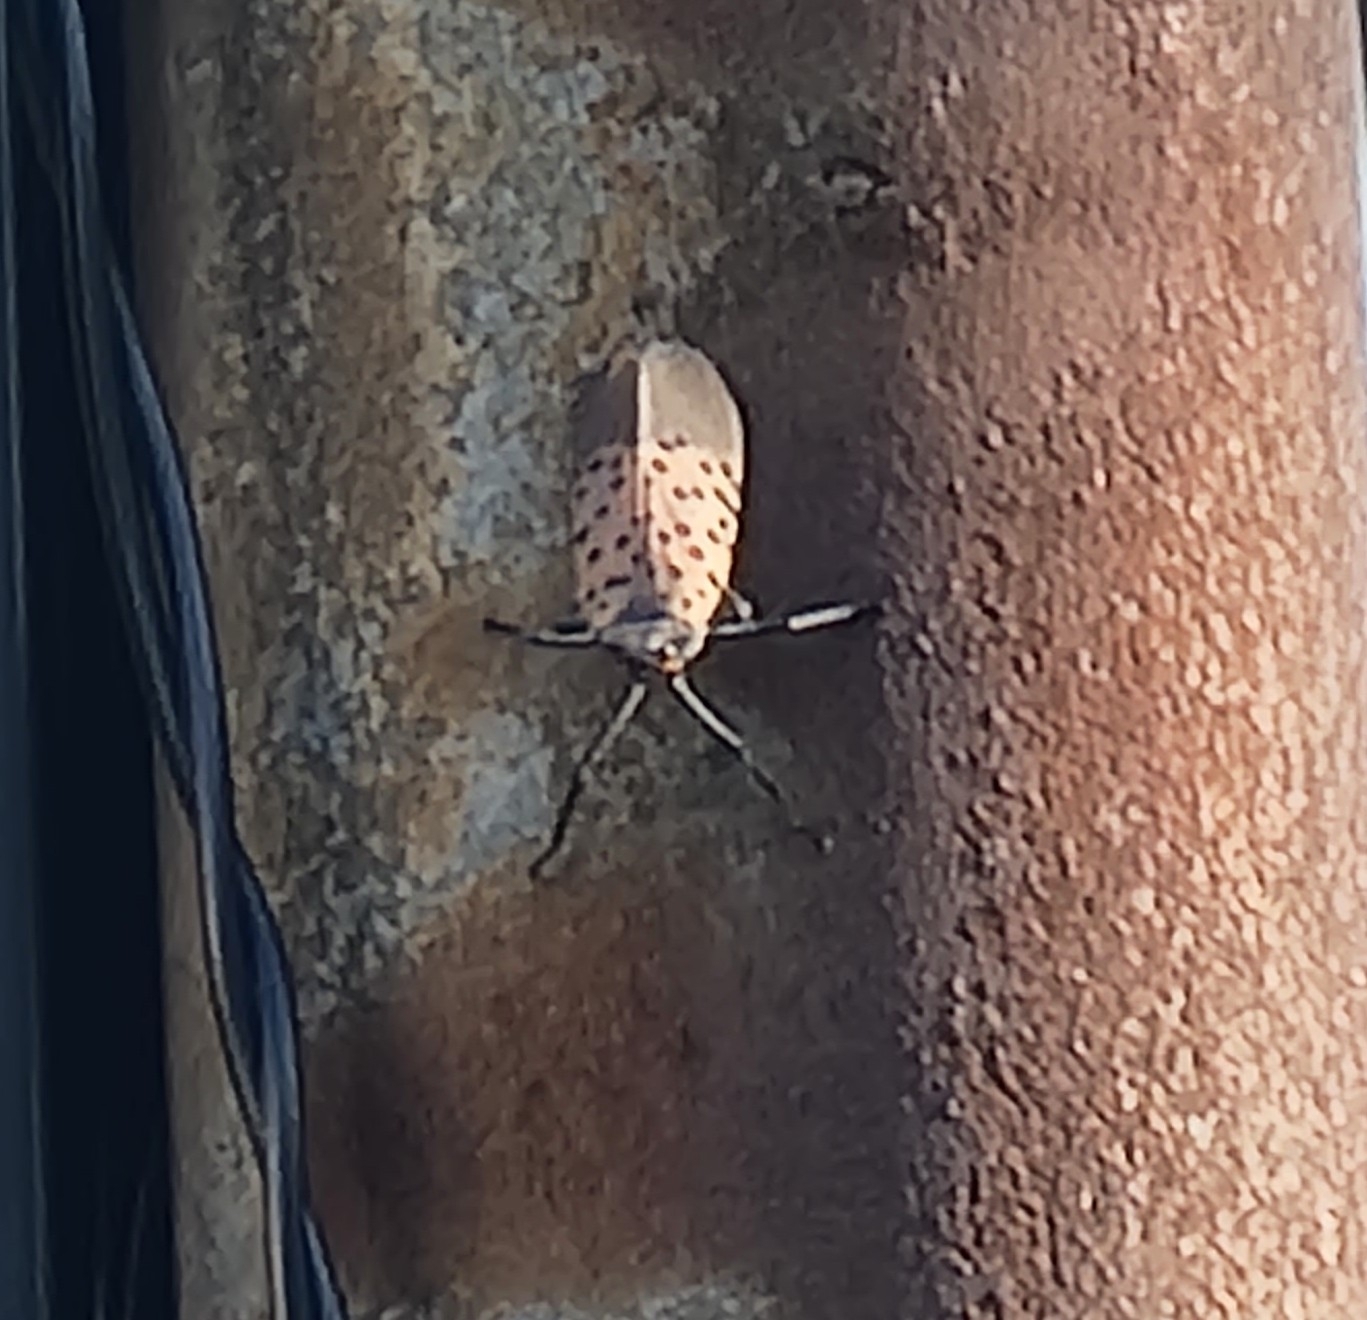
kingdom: Animalia
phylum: Arthropoda
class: Insecta
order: Hemiptera
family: Fulgoridae
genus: Lycorma
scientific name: Lycorma delicatula
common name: Spotted lanternfly
